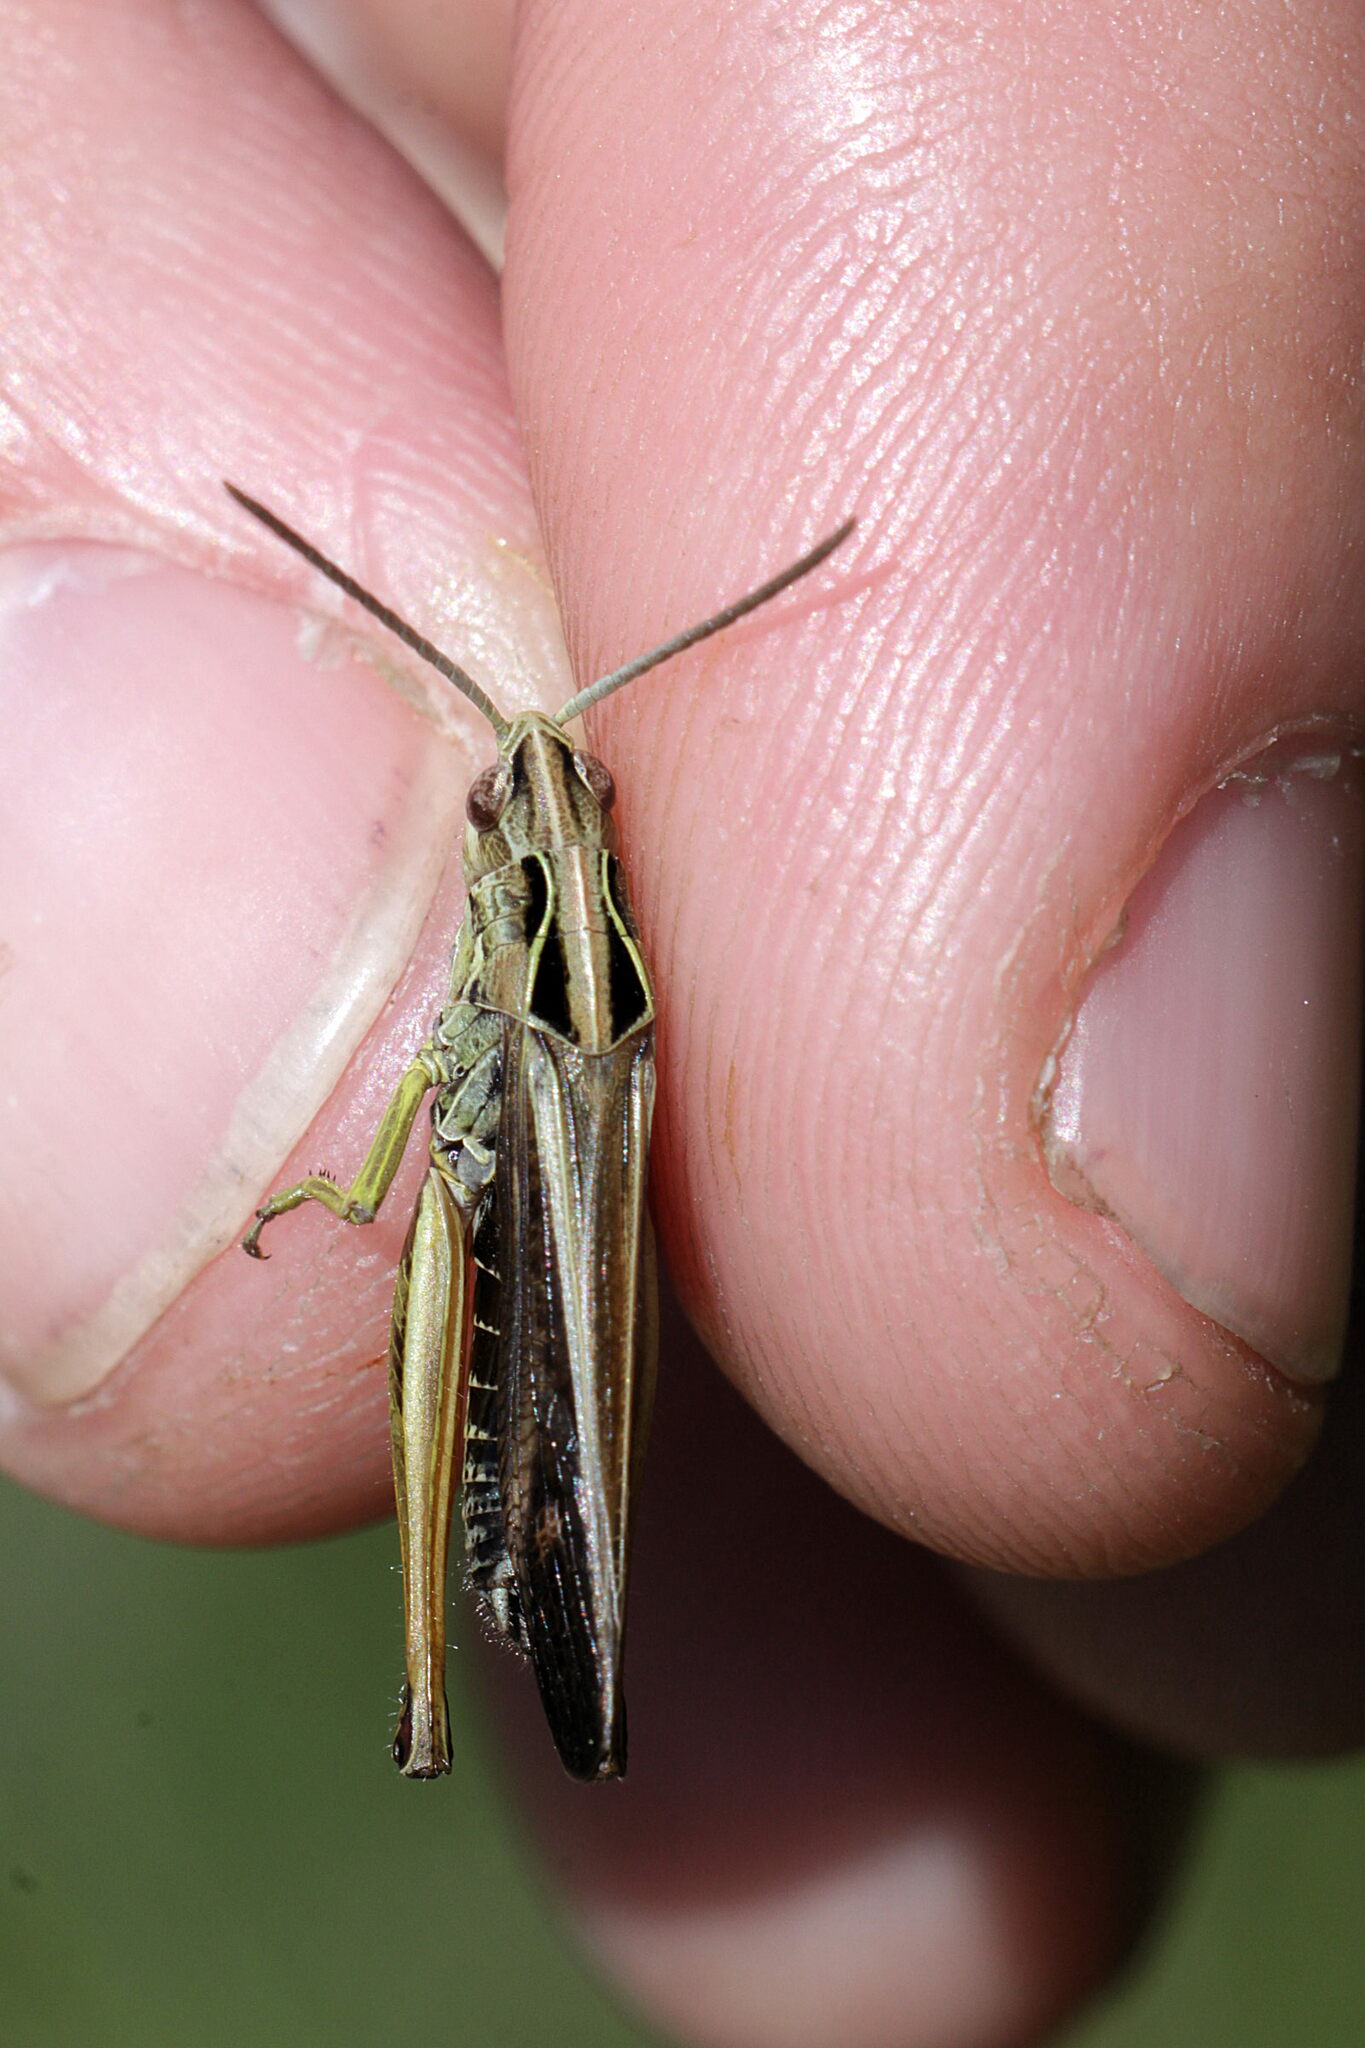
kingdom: Animalia
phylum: Arthropoda
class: Insecta
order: Orthoptera
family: Acrididae
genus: Omocestus
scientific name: Omocestus viridulus
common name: Common green grasshopper
